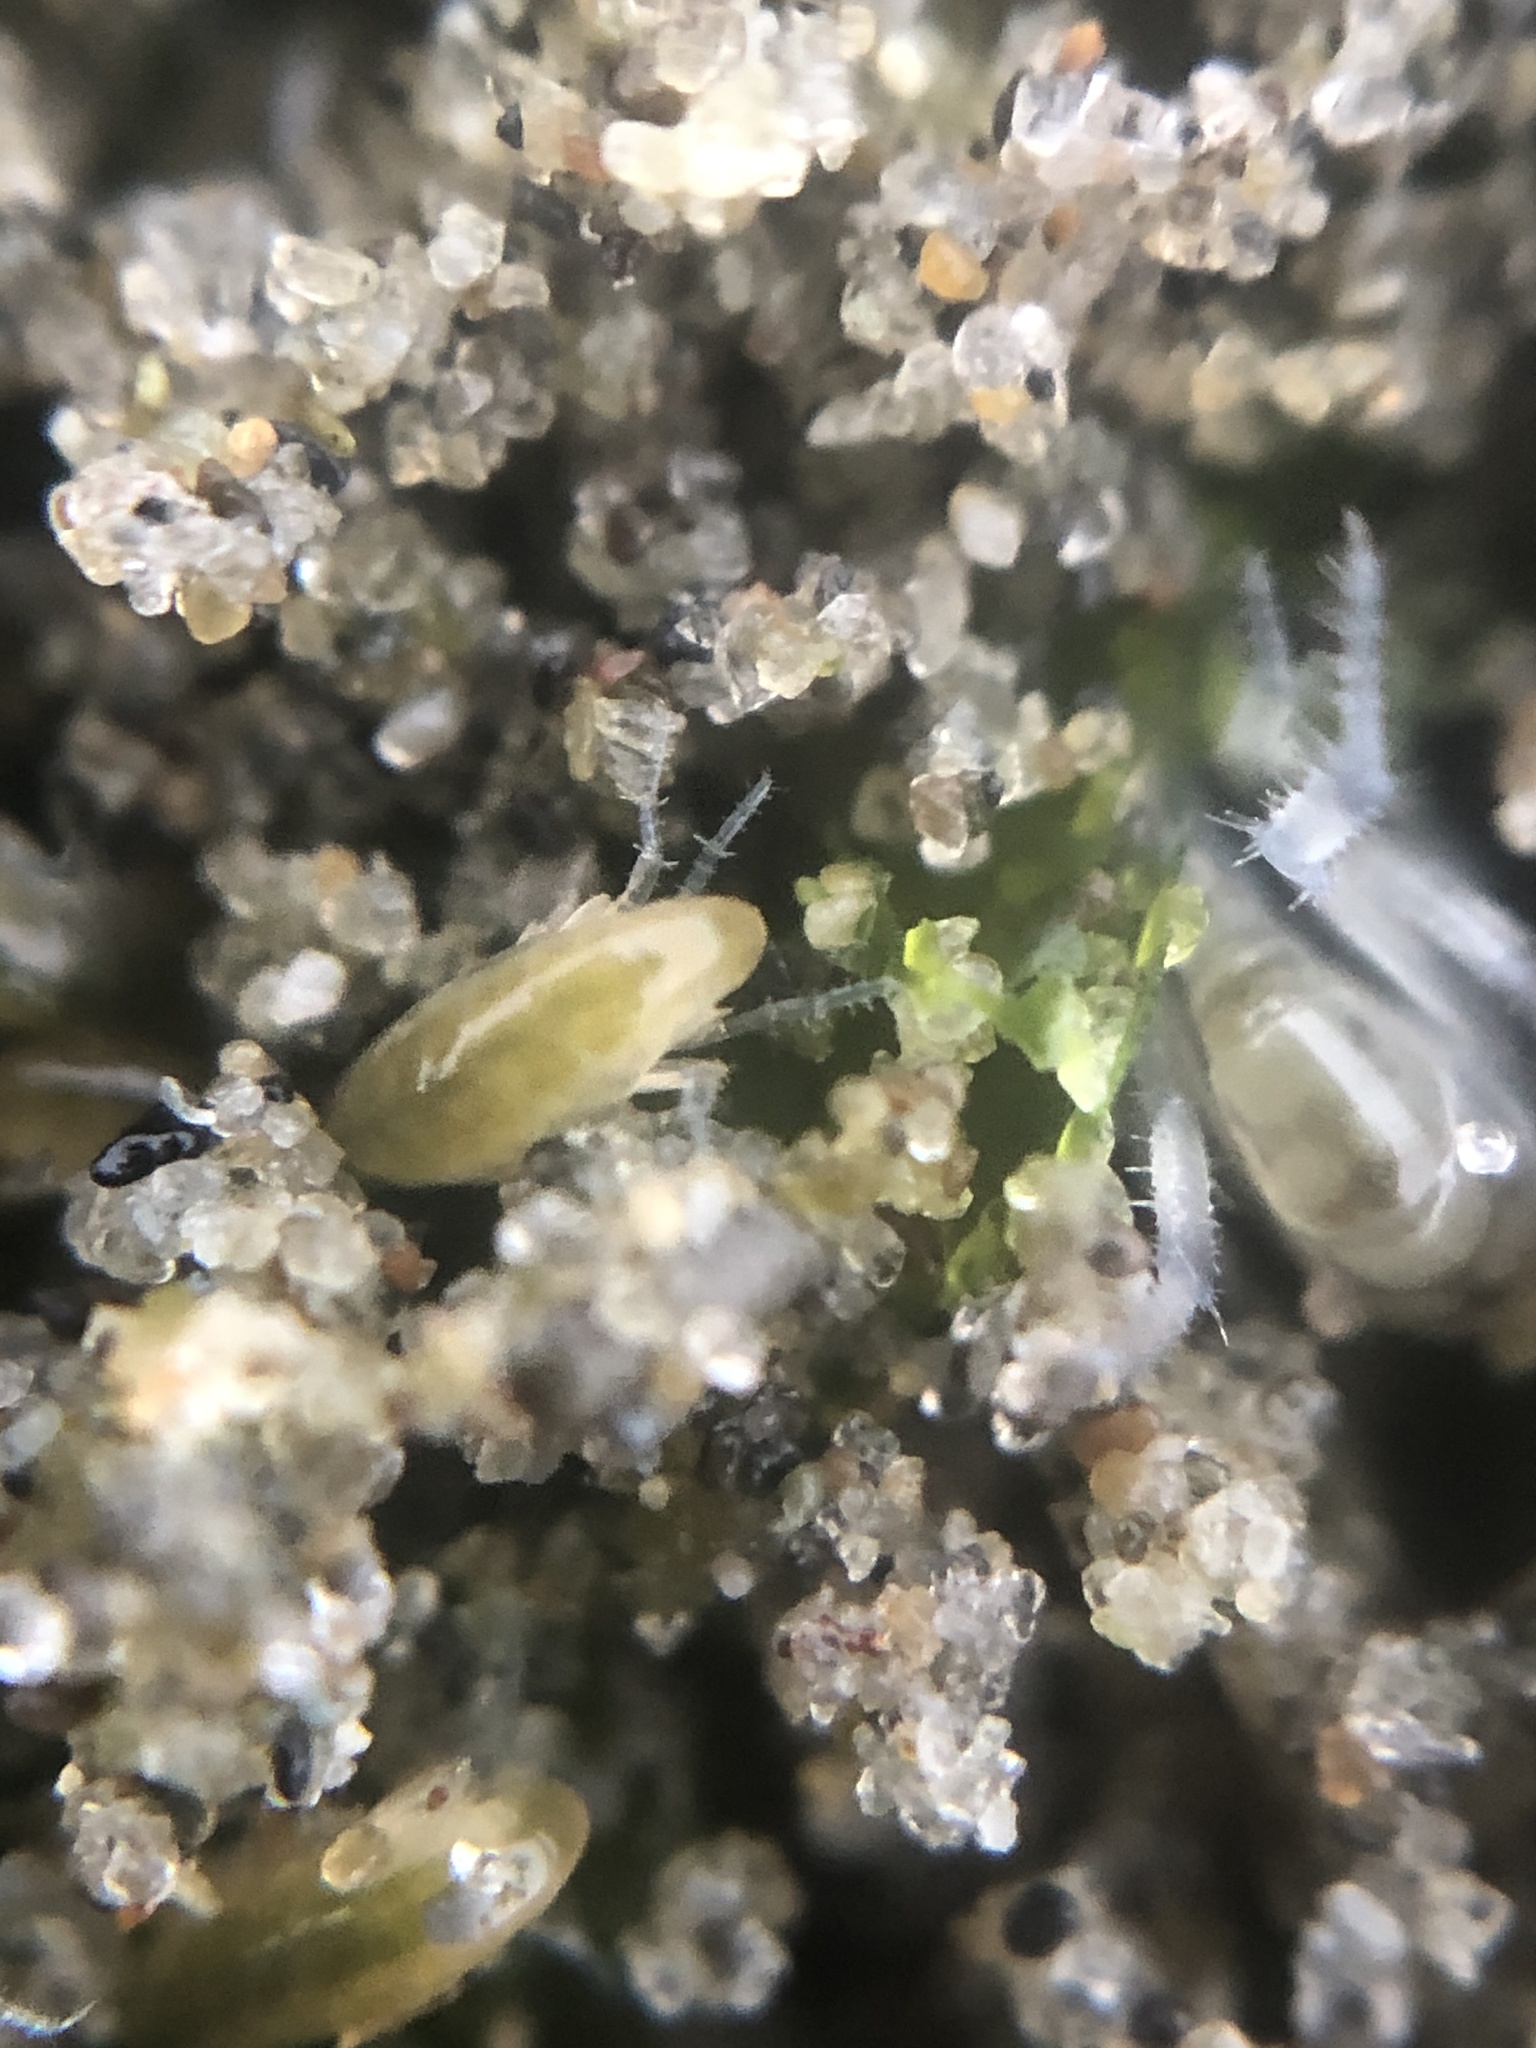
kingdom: Animalia
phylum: Arthropoda
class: Malacostraca
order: Amphipoda
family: Talitridae
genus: Megalorchestia
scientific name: Megalorchestia pugettensis
